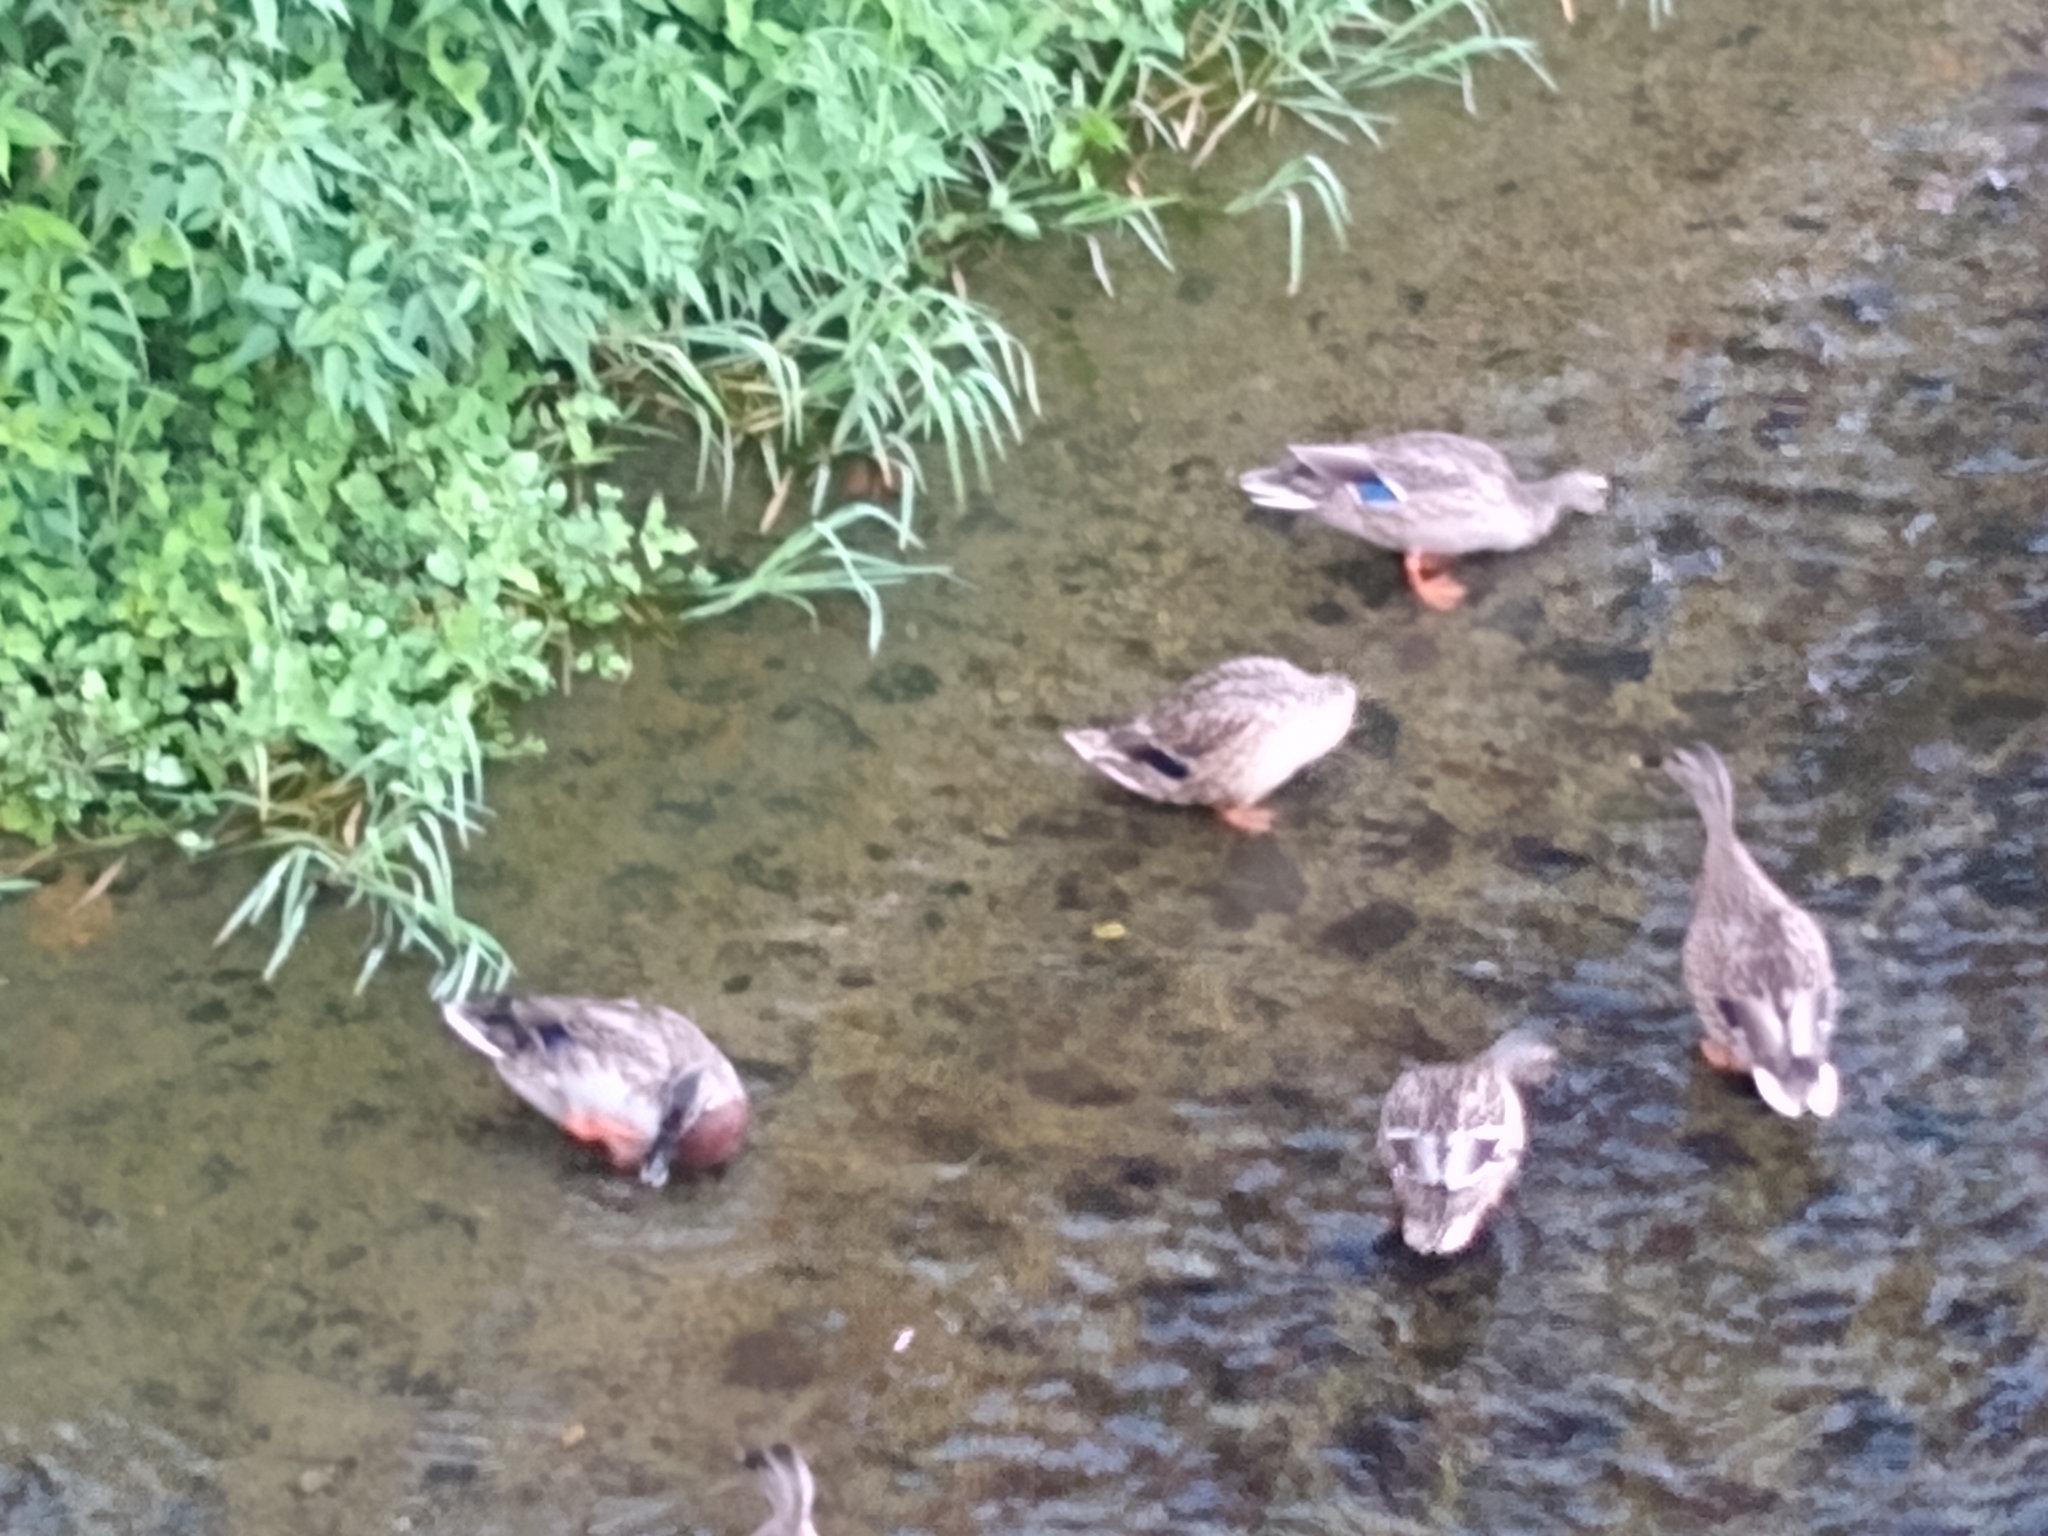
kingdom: Animalia
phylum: Chordata
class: Aves
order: Anseriformes
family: Anatidae
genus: Anas
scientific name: Anas zonorhyncha
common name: Eastern spot-billed duck
